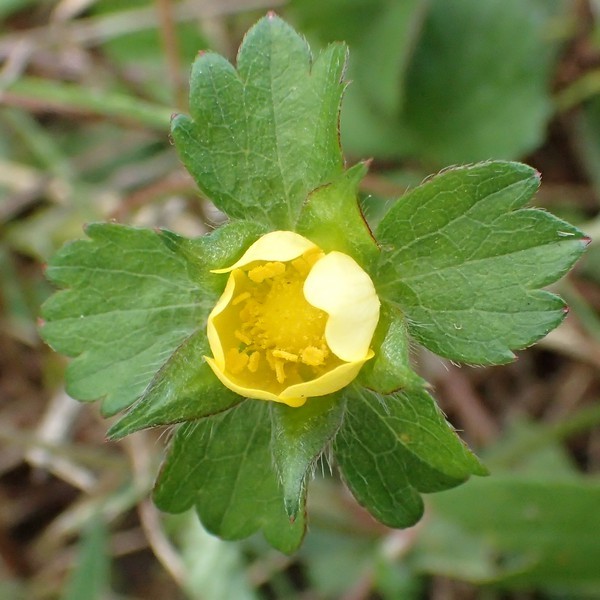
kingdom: Plantae
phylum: Tracheophyta
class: Magnoliopsida
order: Rosales
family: Rosaceae
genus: Potentilla
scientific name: Potentilla indica
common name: Yellow-flowered strawberry
